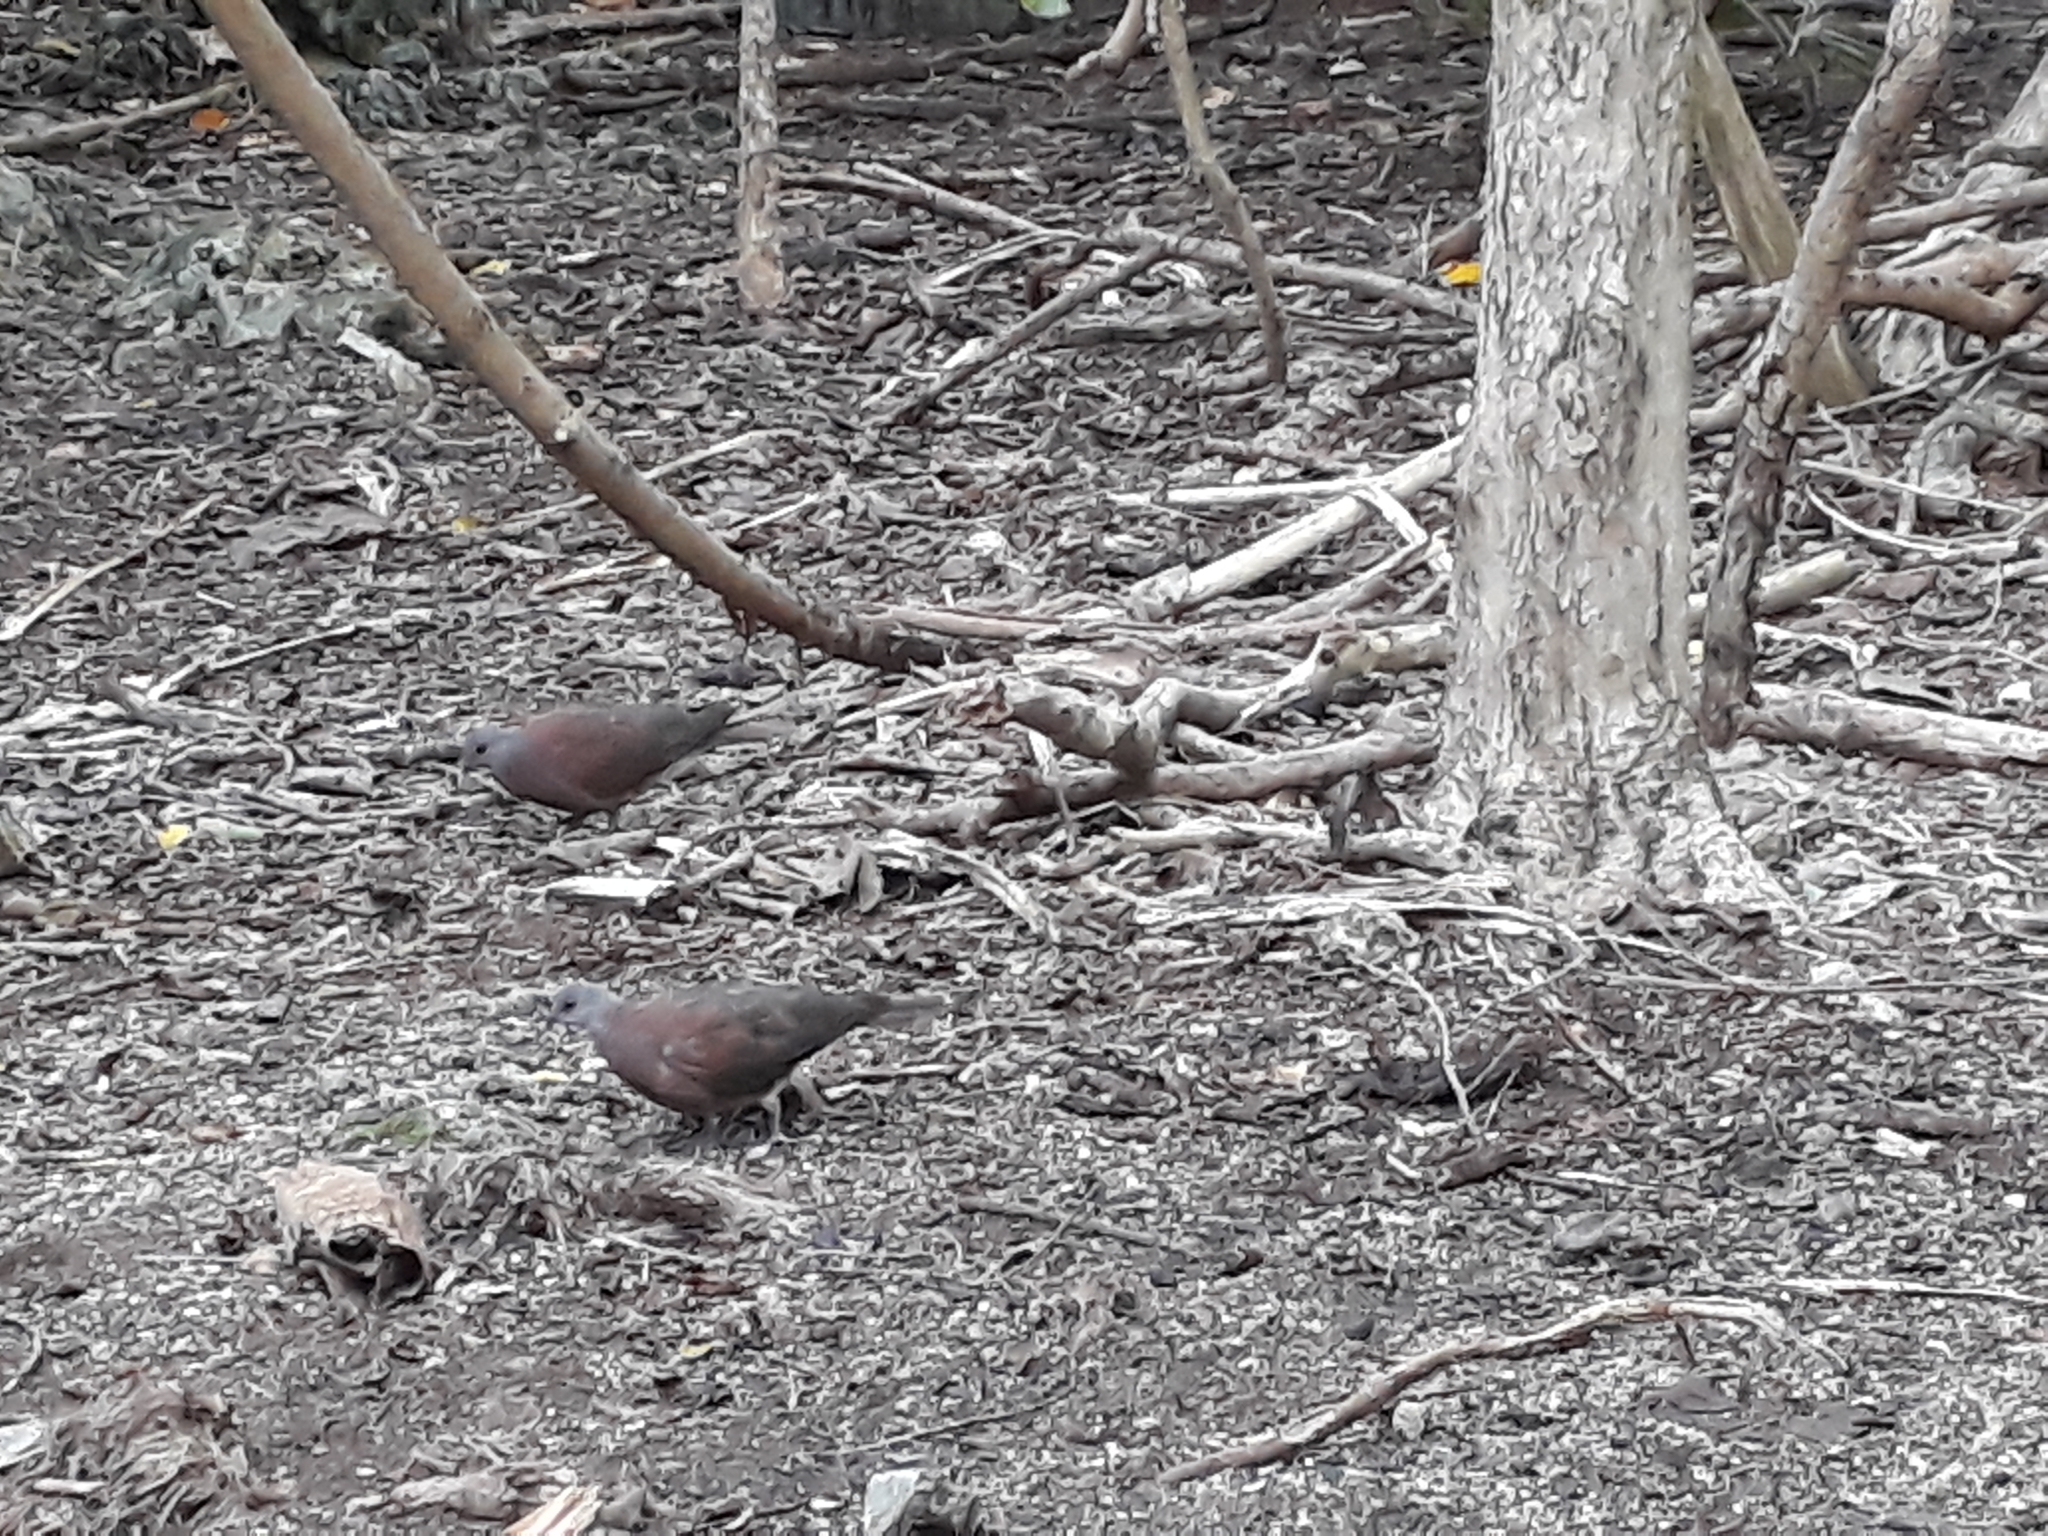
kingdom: Animalia
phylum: Chordata
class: Aves
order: Columbiformes
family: Columbidae
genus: Nesoenas
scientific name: Nesoenas picturatus
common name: Malagasy turtle dove
